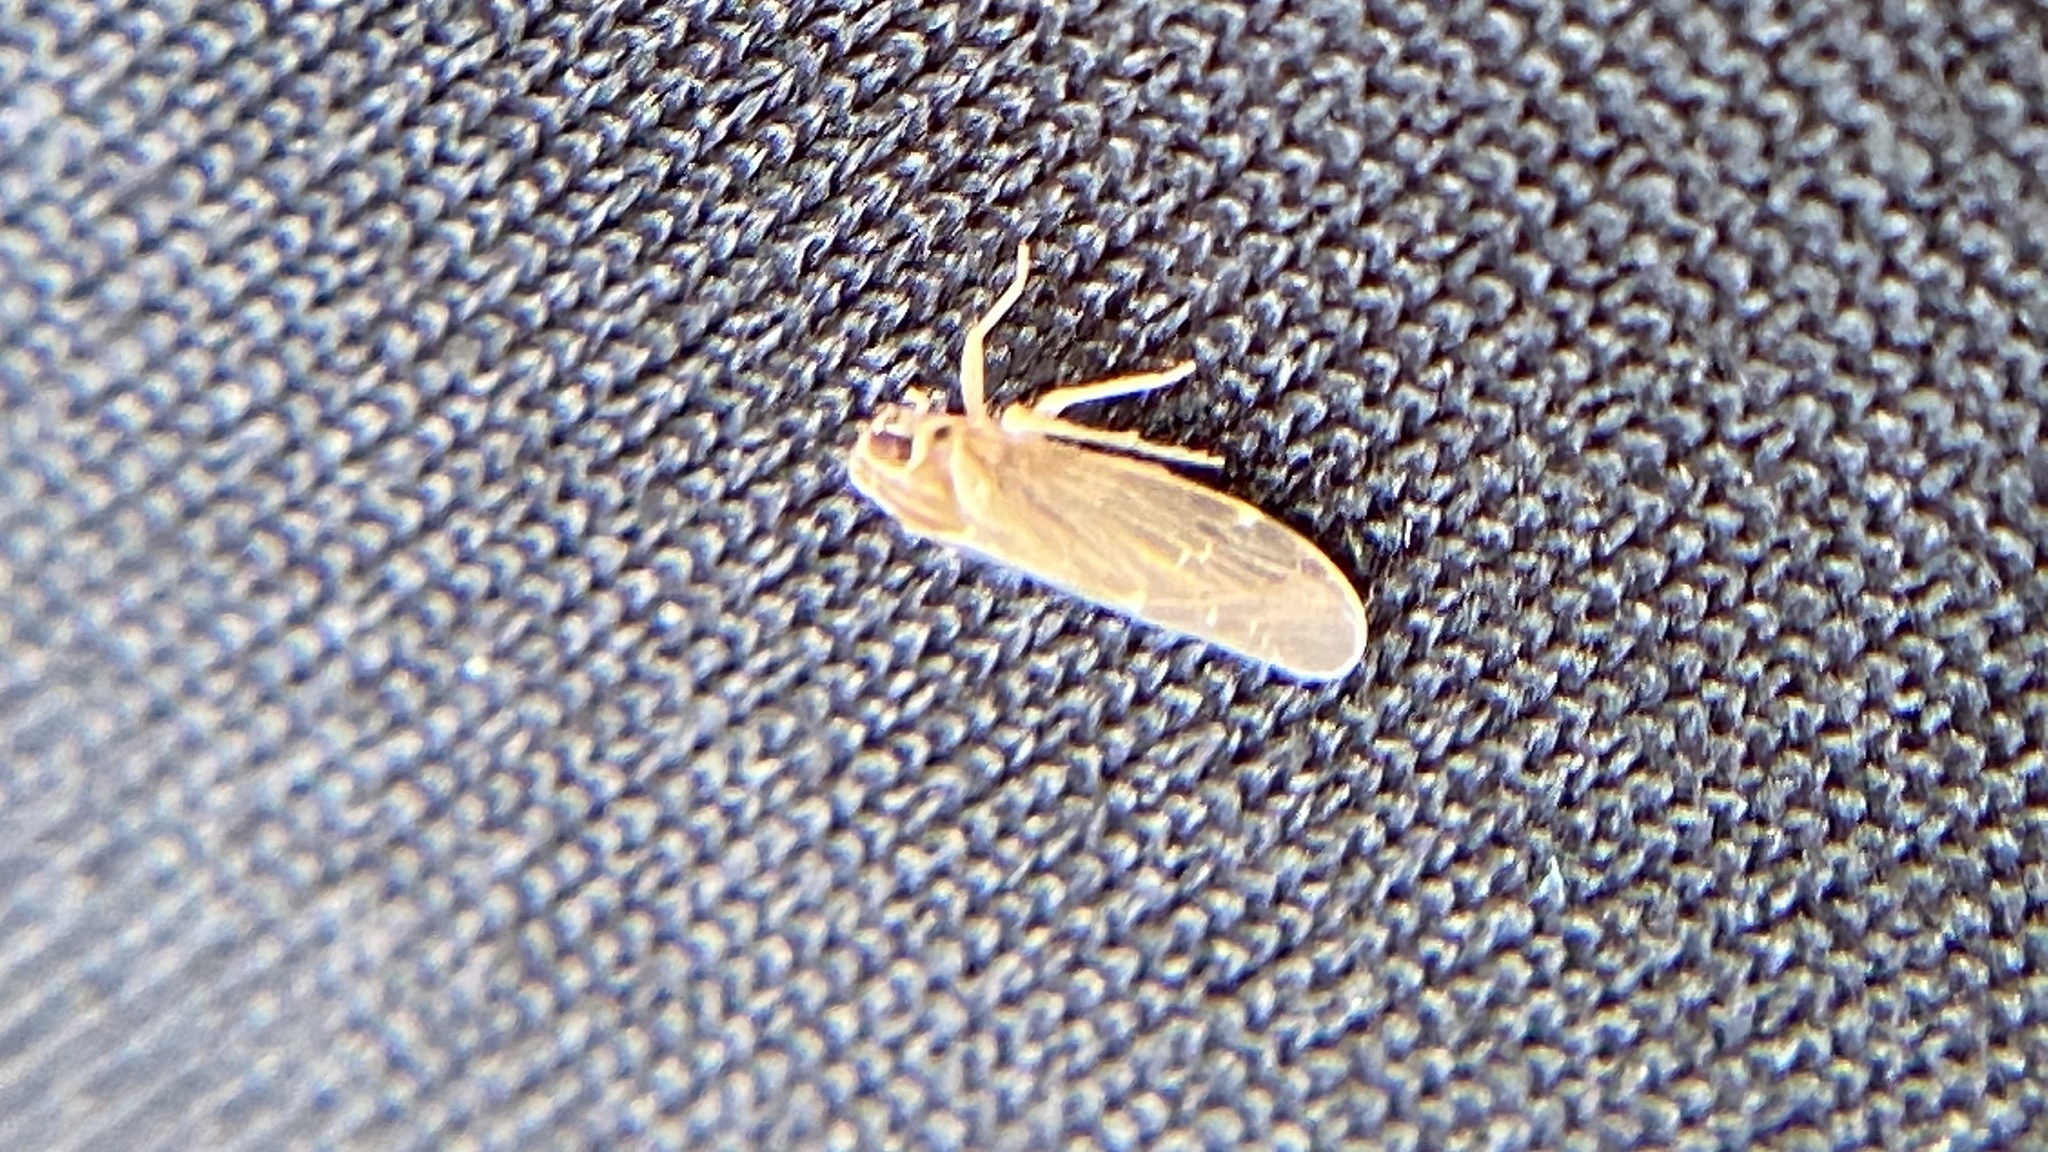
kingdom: Animalia
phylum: Arthropoda
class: Insecta
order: Hemiptera
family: Achilidae
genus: Synecdoche
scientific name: Synecdoche dimidiata
